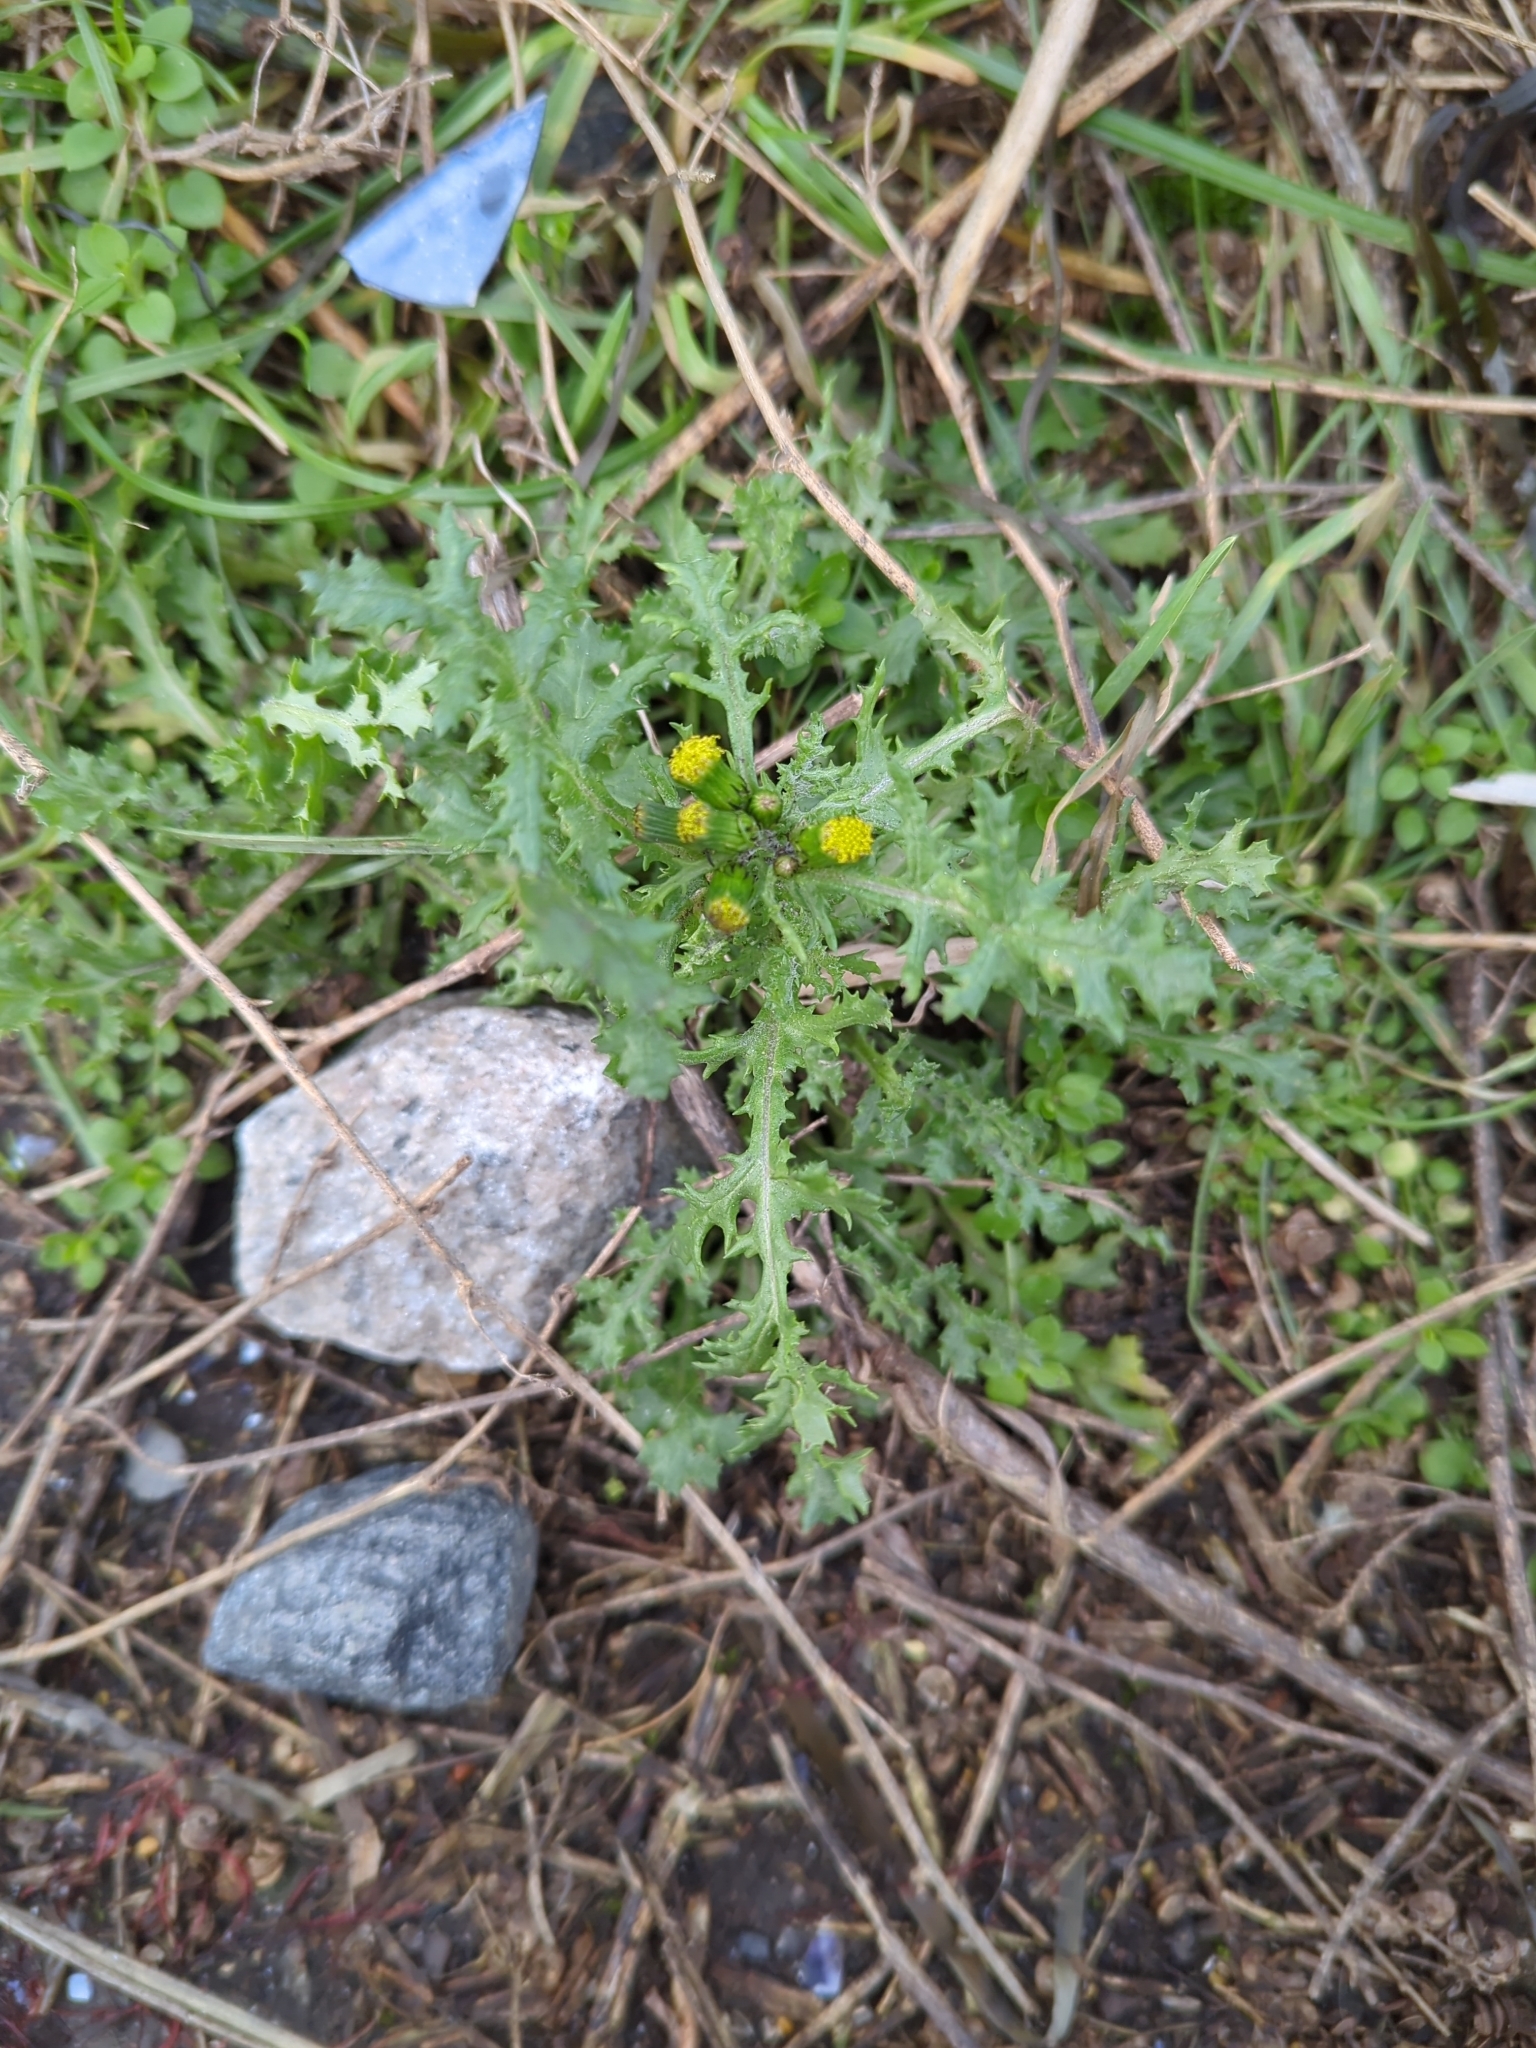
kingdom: Plantae
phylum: Tracheophyta
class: Magnoliopsida
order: Asterales
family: Asteraceae
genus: Senecio
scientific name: Senecio vulgaris
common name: Old-man-in-the-spring
